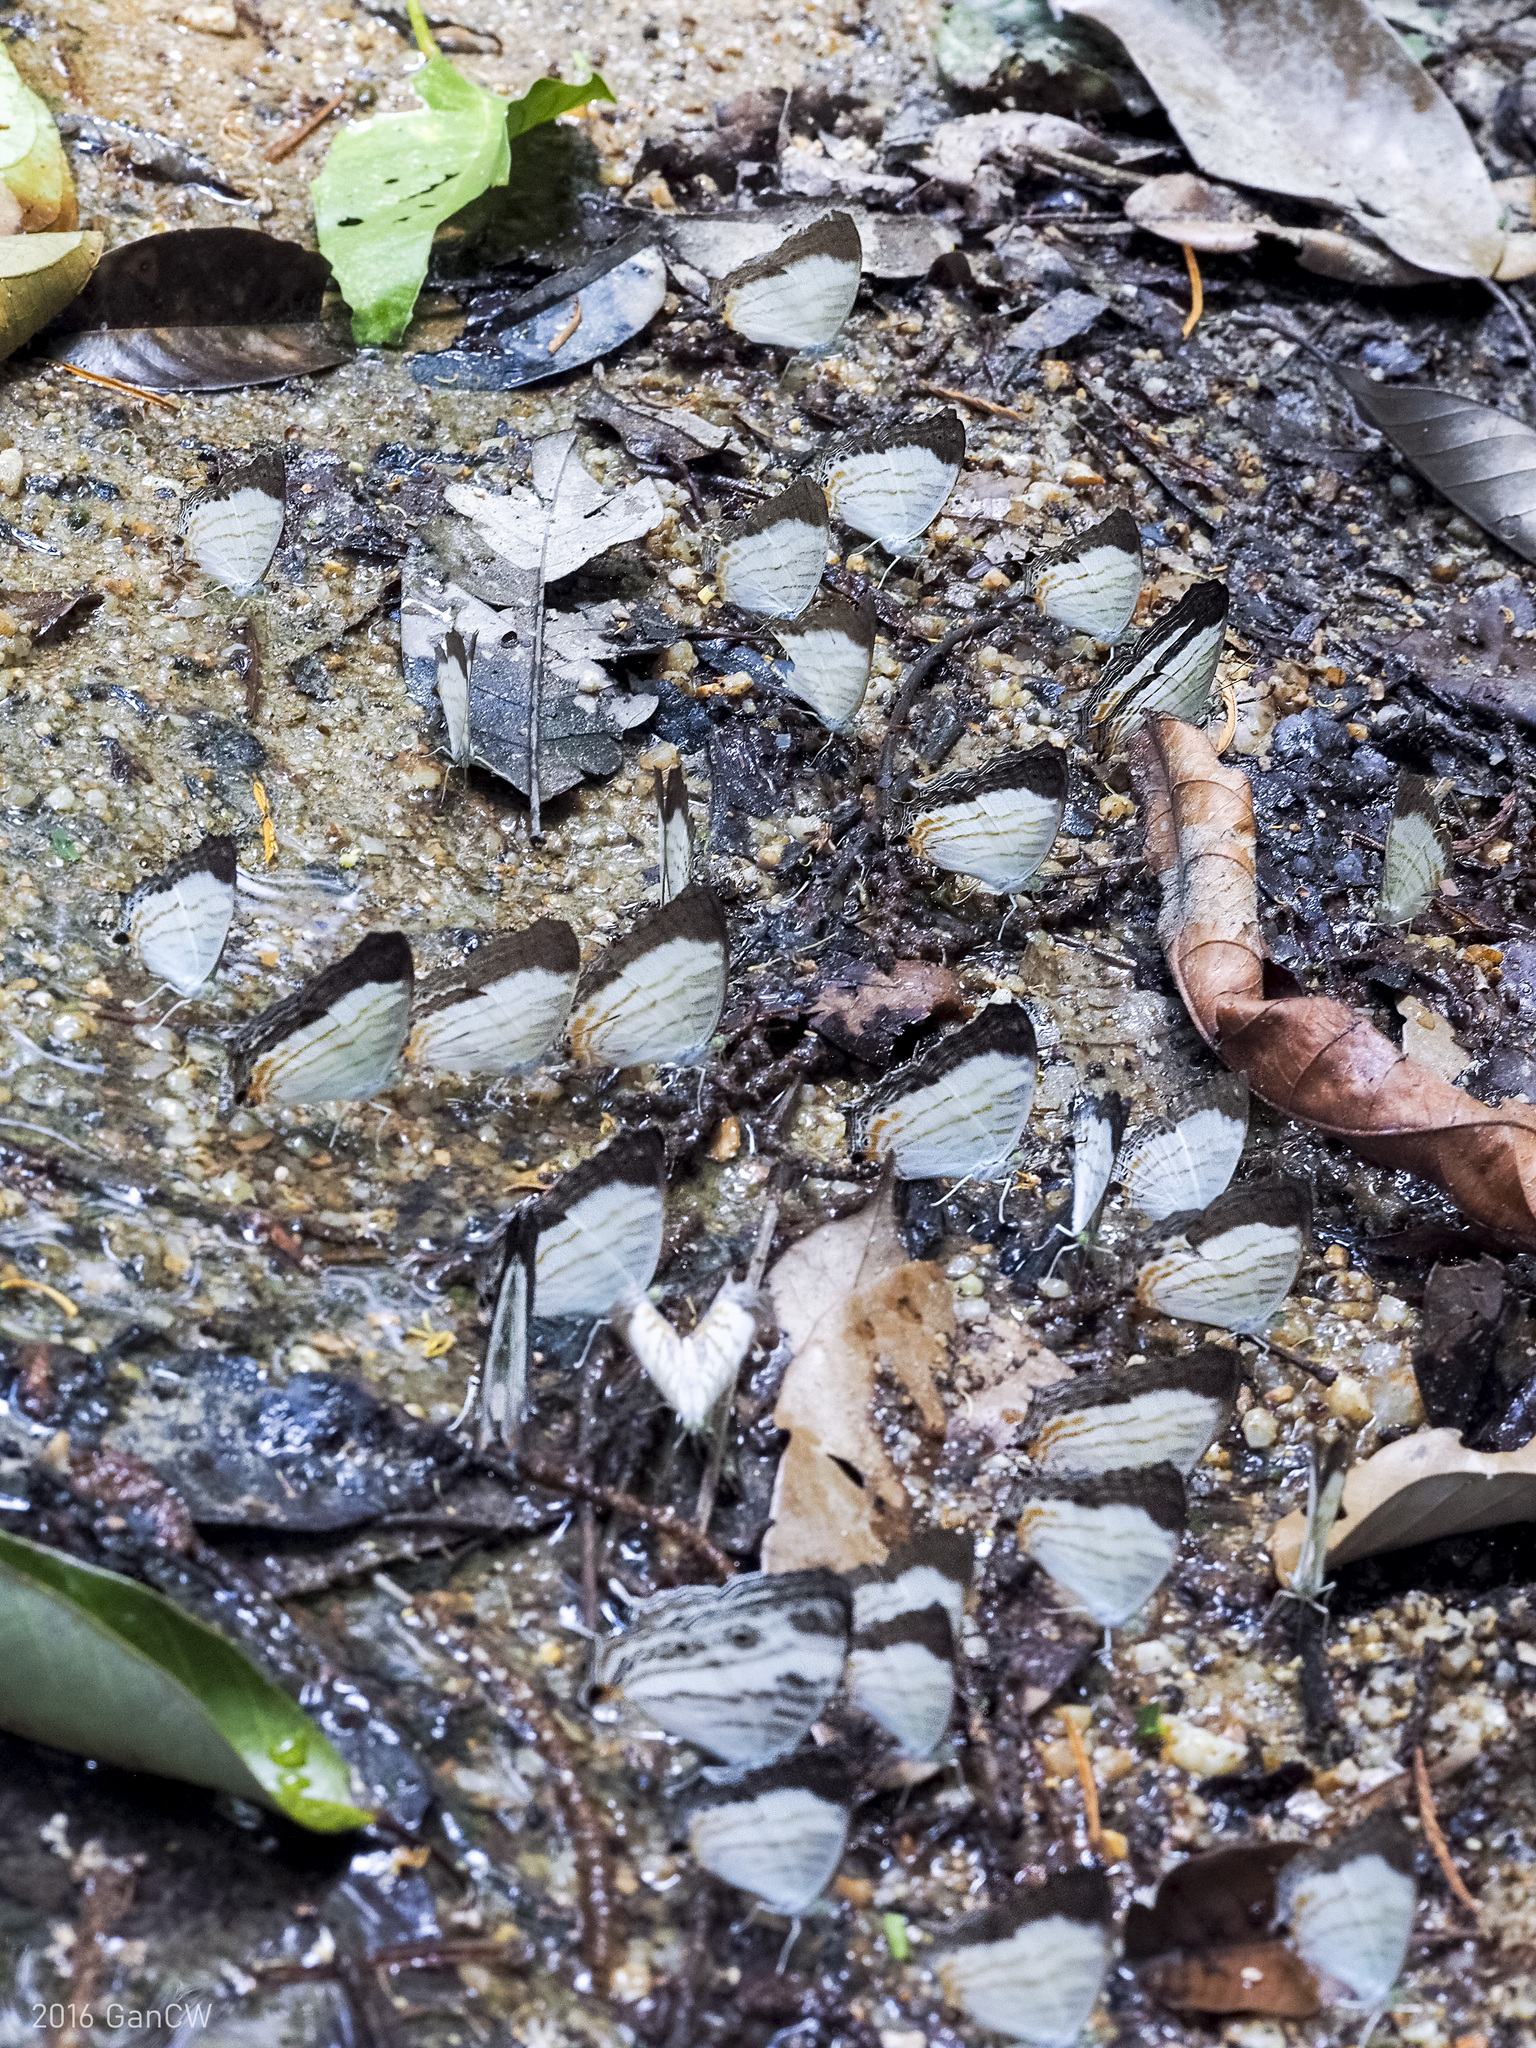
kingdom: Animalia
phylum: Arthropoda
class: Insecta
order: Lepidoptera
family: Nymphalidae
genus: Cyrestis
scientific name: Cyrestis themire
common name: Little mapwing
